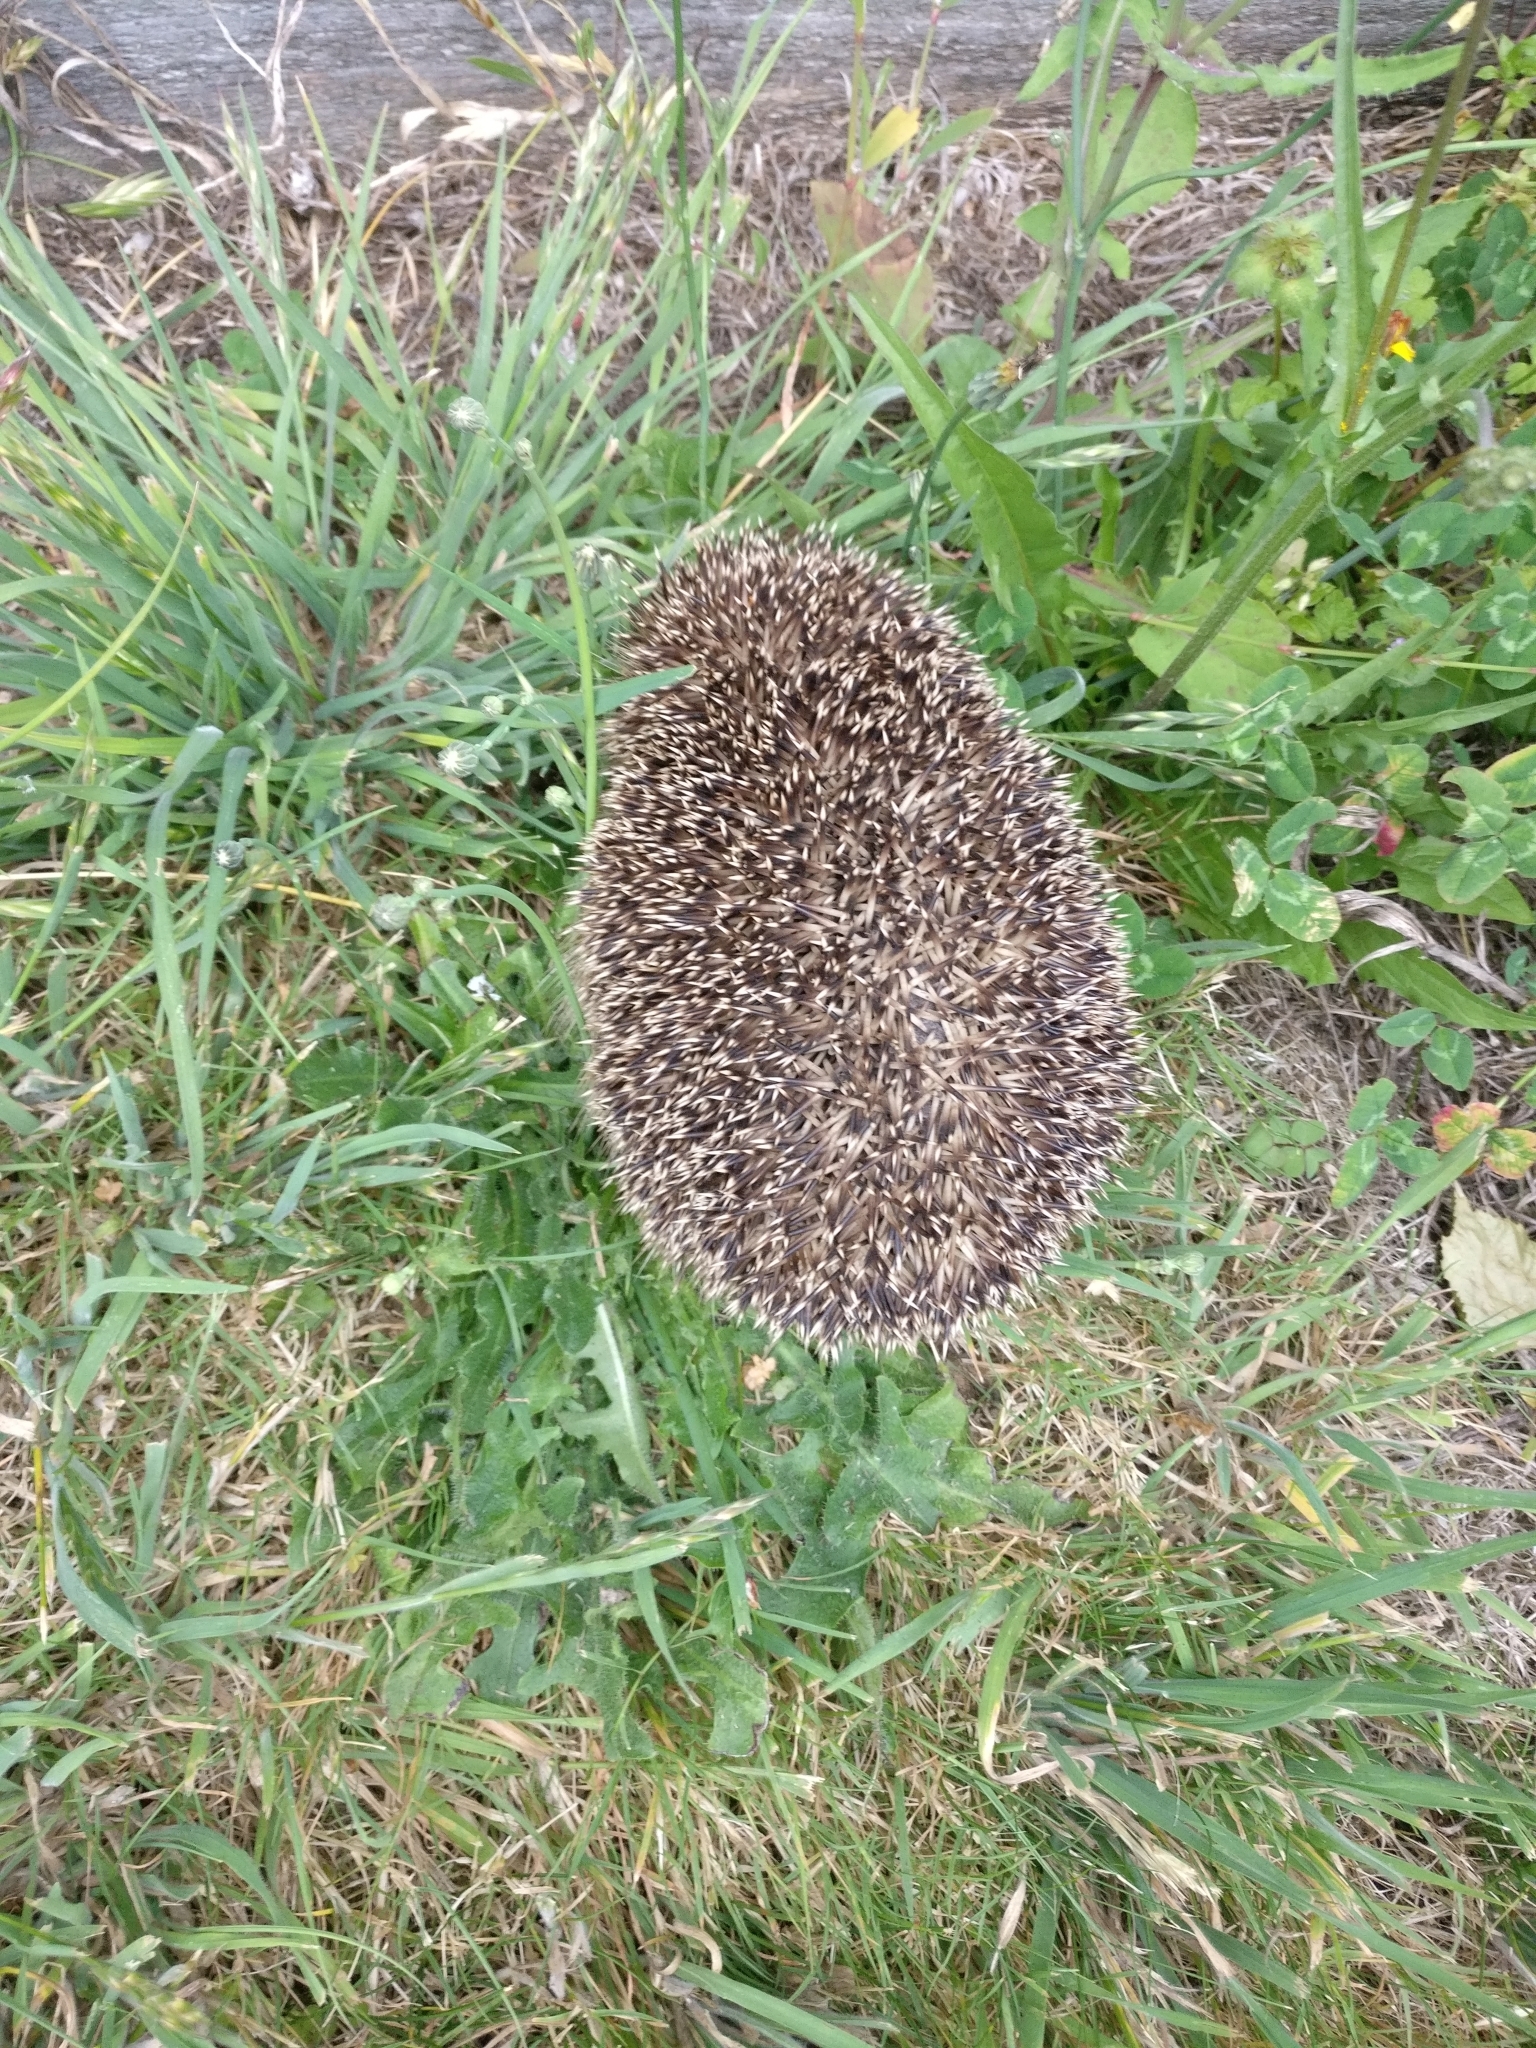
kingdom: Animalia
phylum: Chordata
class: Mammalia
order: Erinaceomorpha
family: Erinaceidae
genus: Erinaceus
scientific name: Erinaceus europaeus
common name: West european hedgehog
